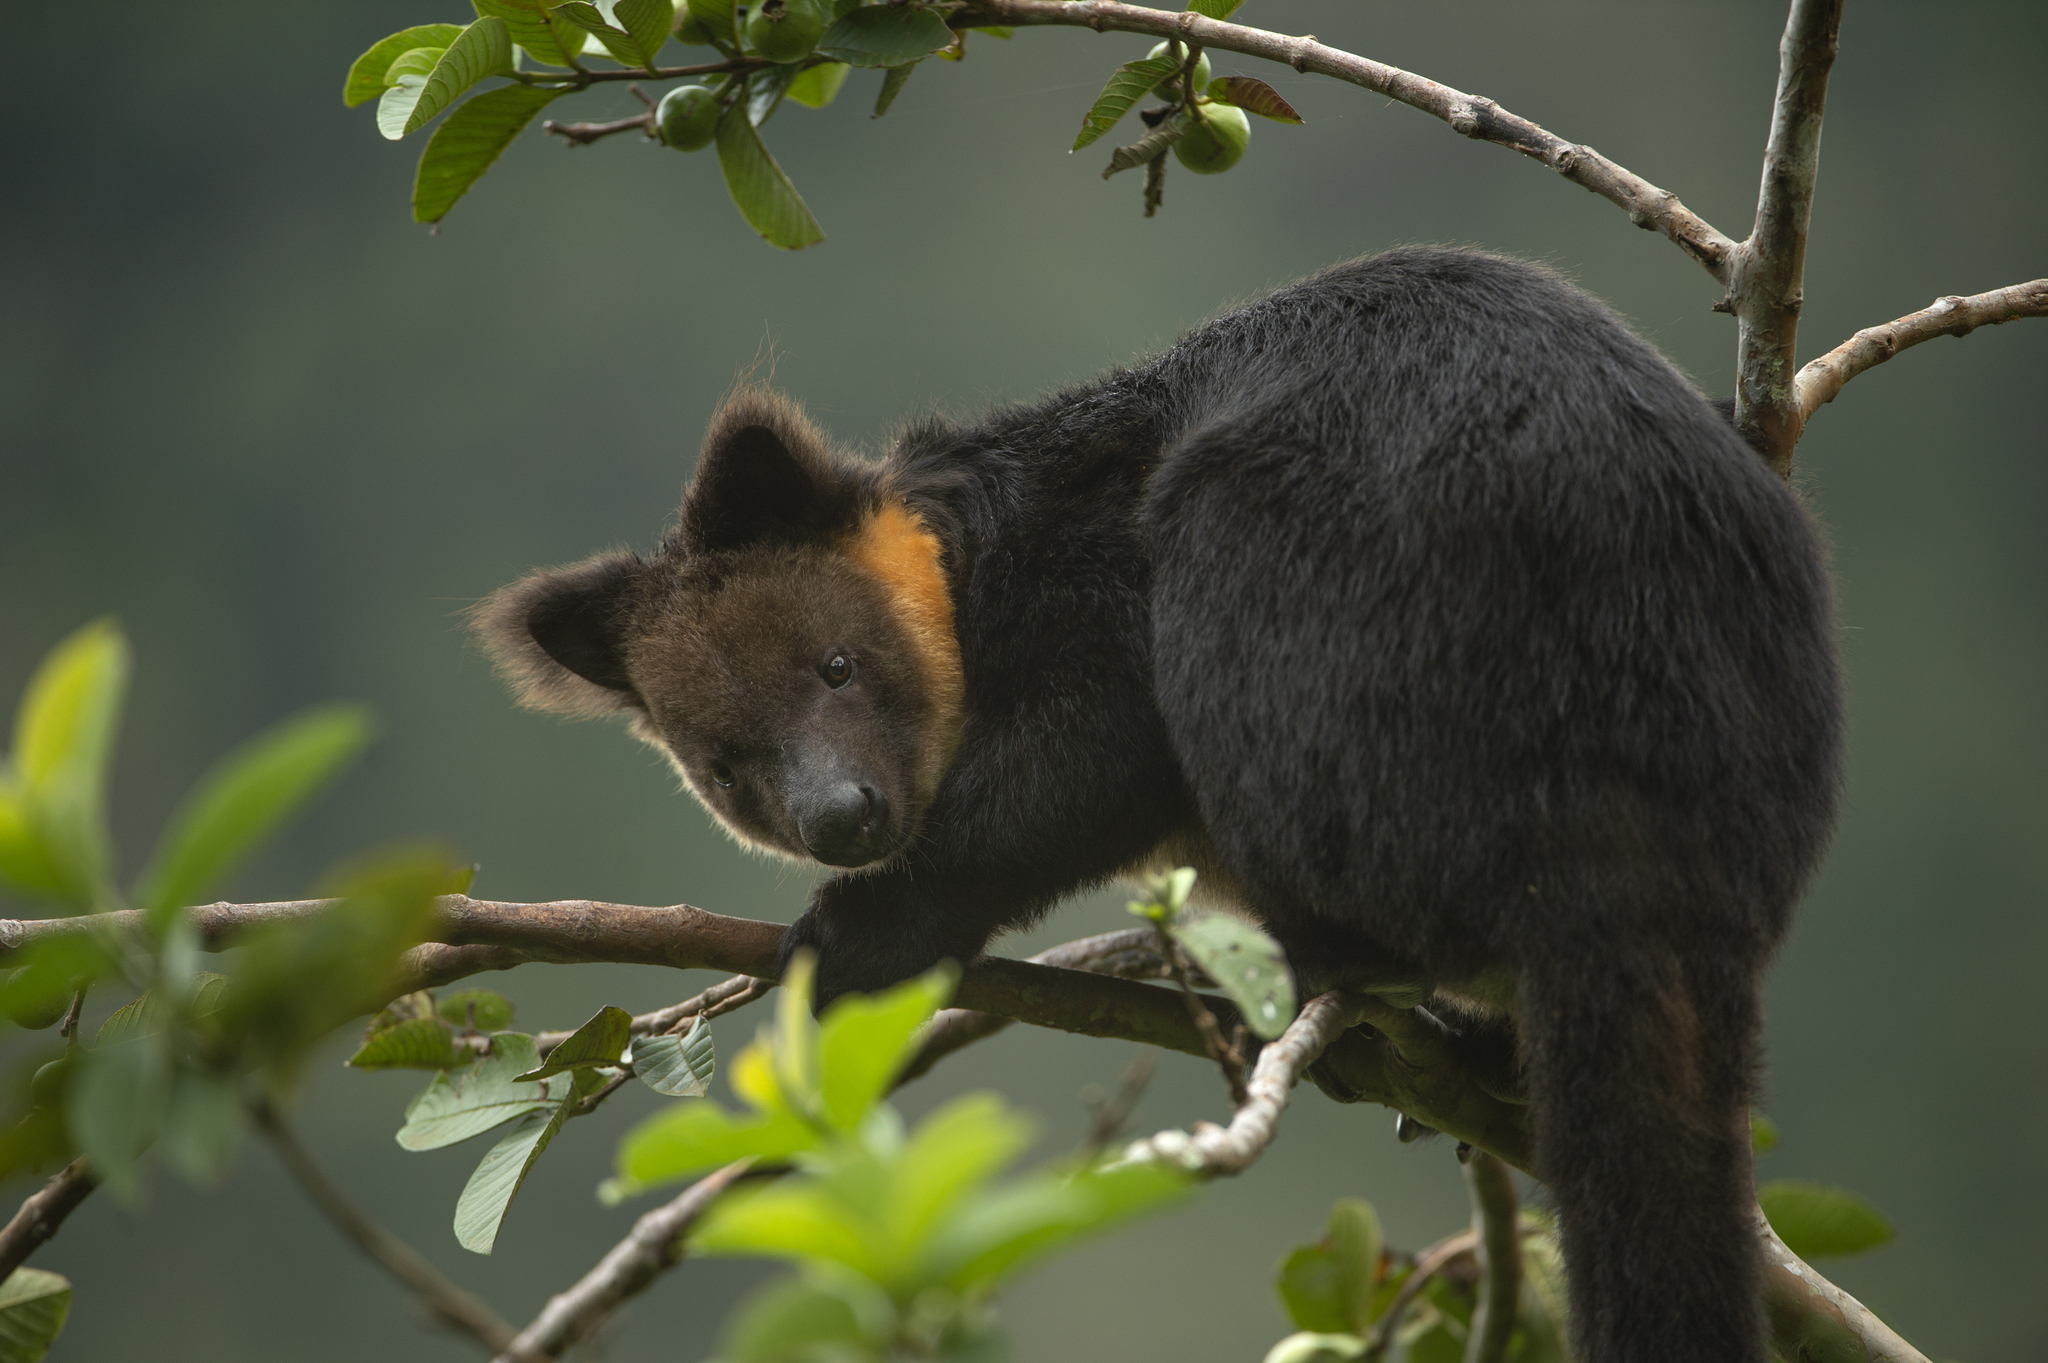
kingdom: Animalia
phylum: Chordata
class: Mammalia
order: Diprotodontia
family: Macropodidae
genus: Dendrolagus
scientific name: Dendrolagus ursinus
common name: Ursine tree-kangaroo
